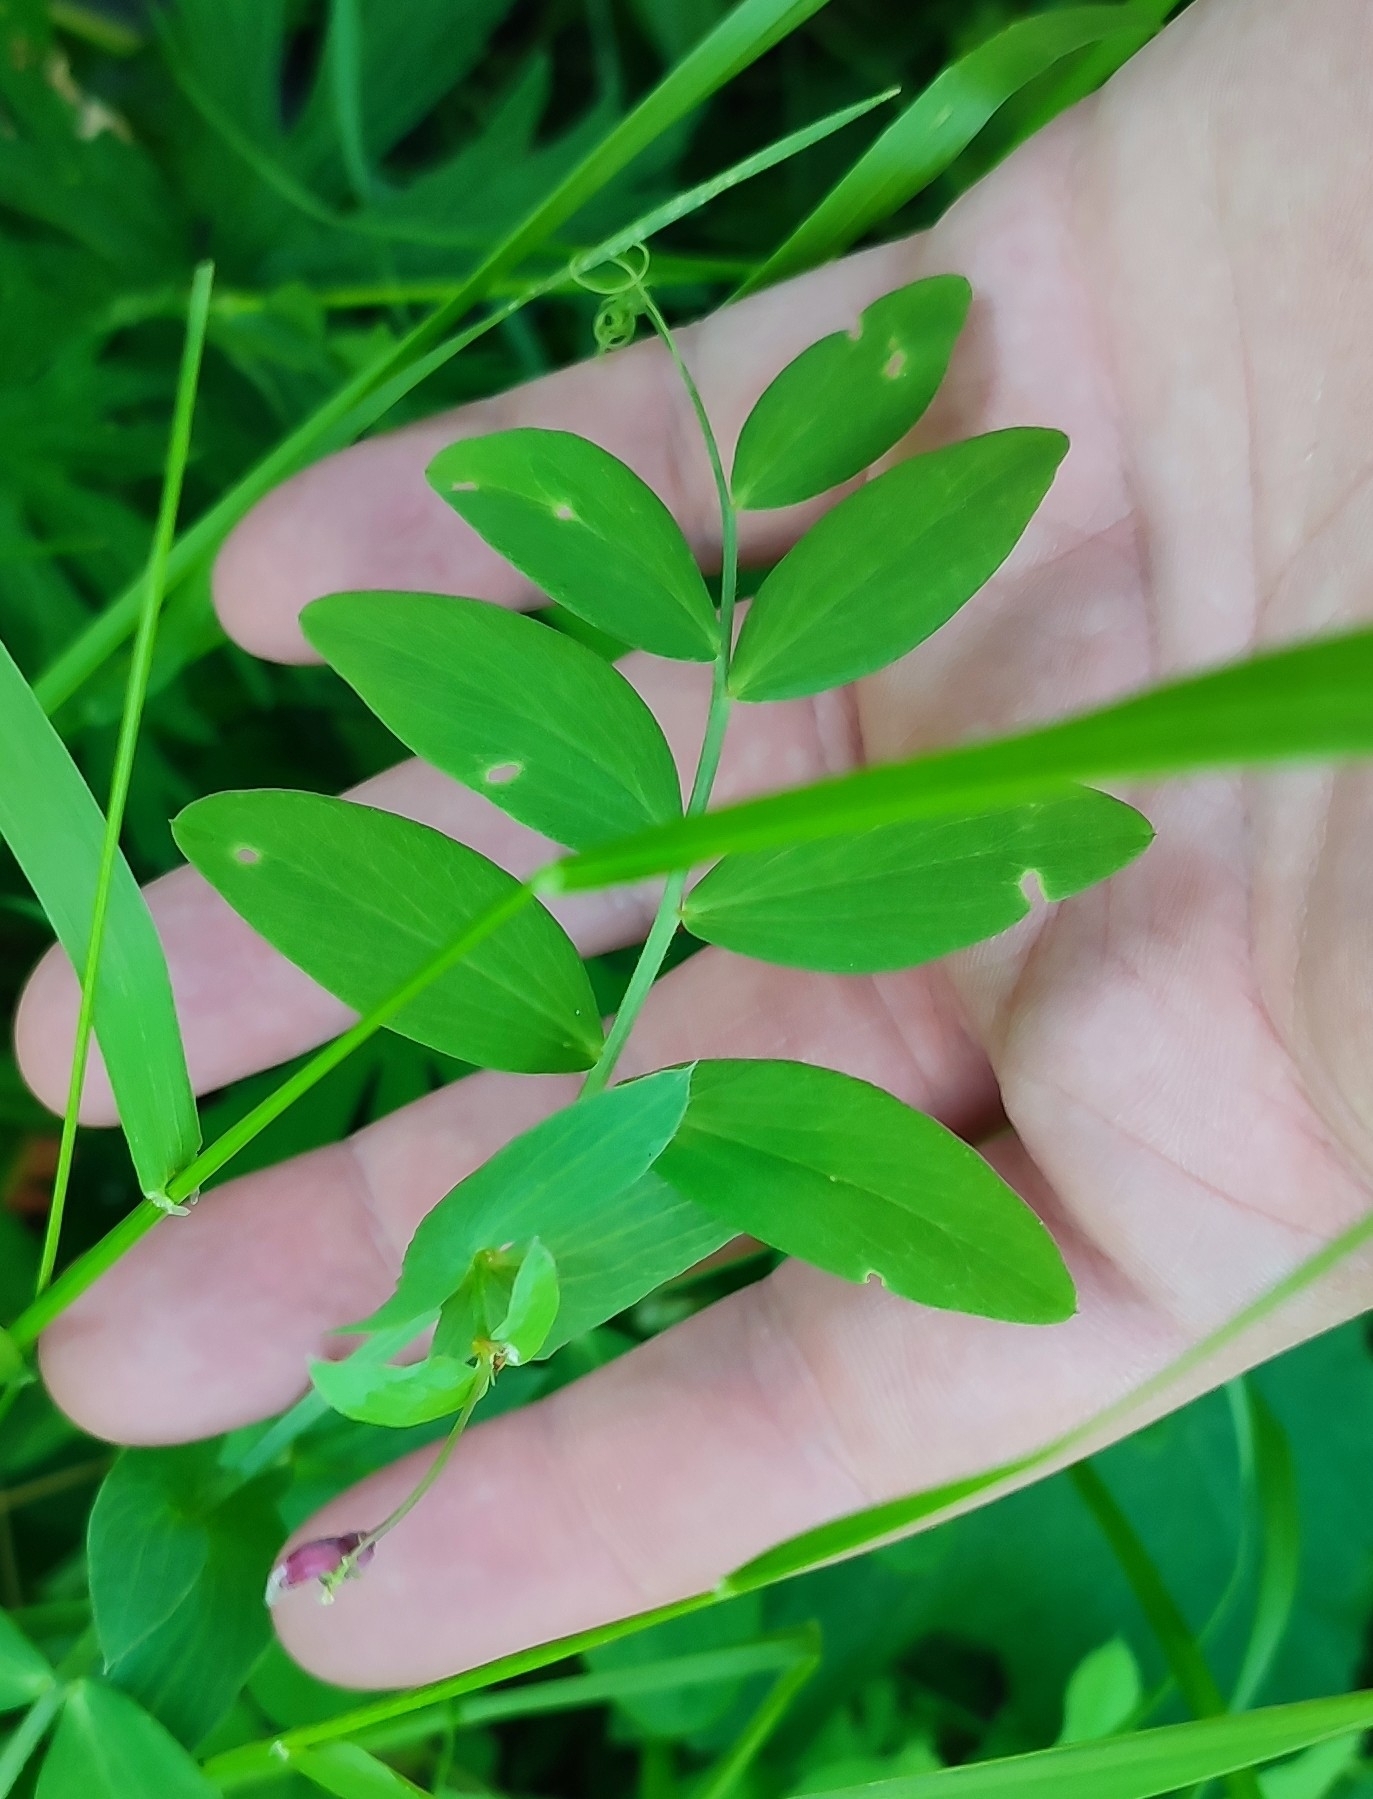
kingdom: Plantae
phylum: Tracheophyta
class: Magnoliopsida
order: Fabales
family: Fabaceae
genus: Lathyrus
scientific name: Lathyrus pisiformis
